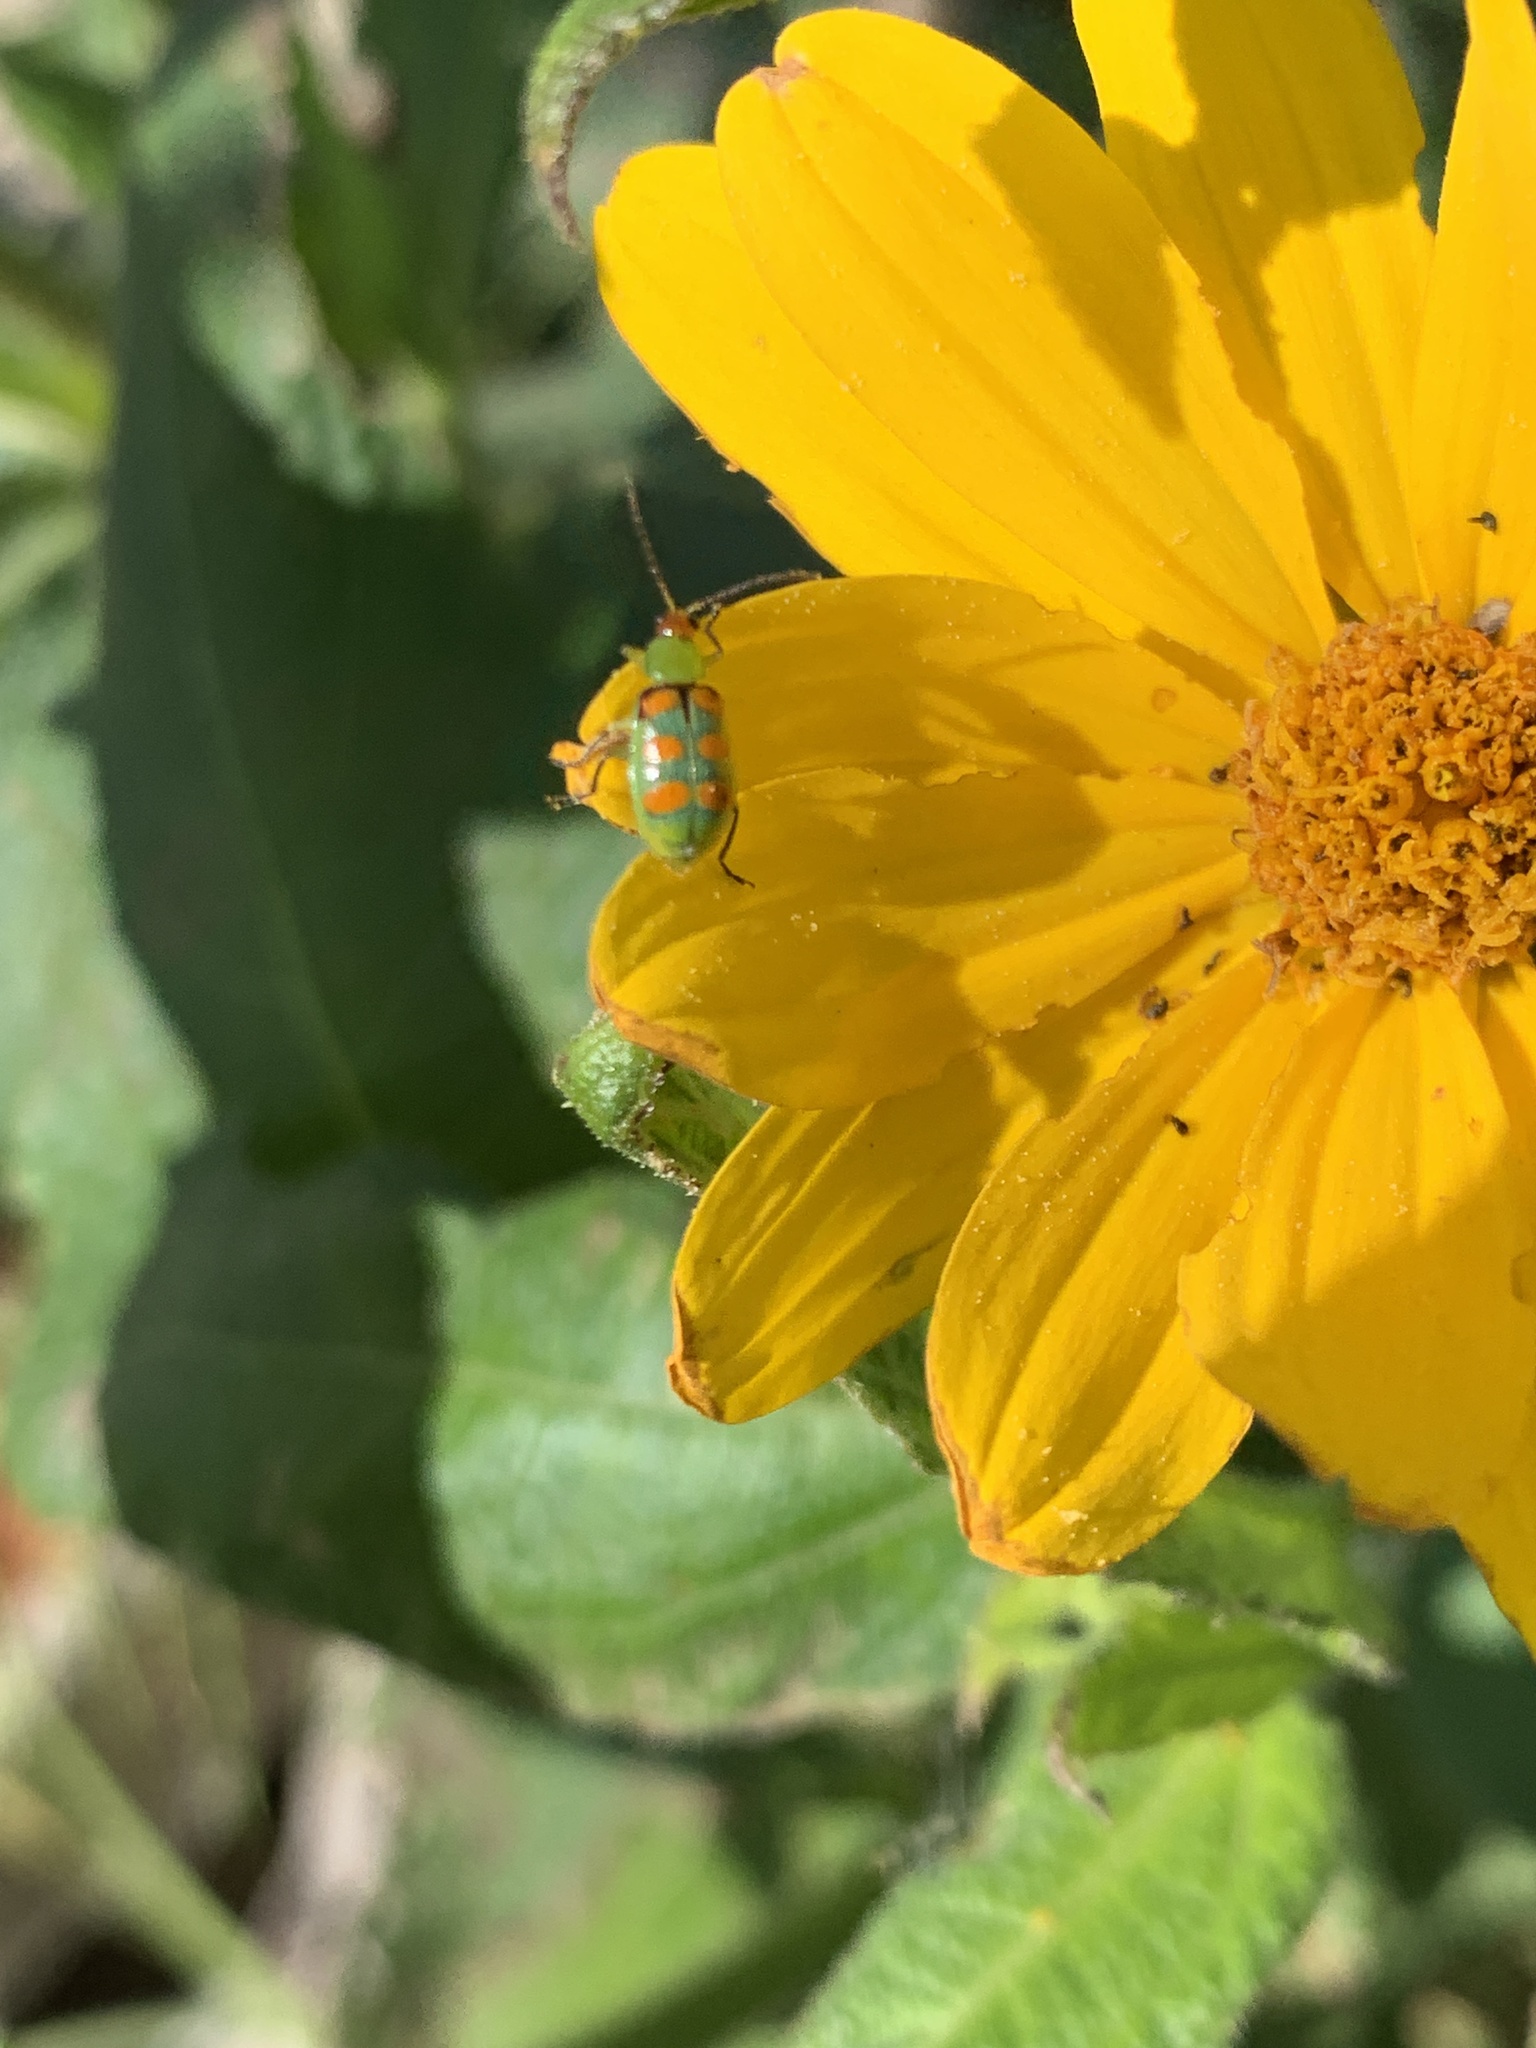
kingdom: Animalia
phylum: Arthropoda
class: Insecta
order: Coleoptera
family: Chrysomelidae
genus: Diabrotica
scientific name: Diabrotica speciosa
